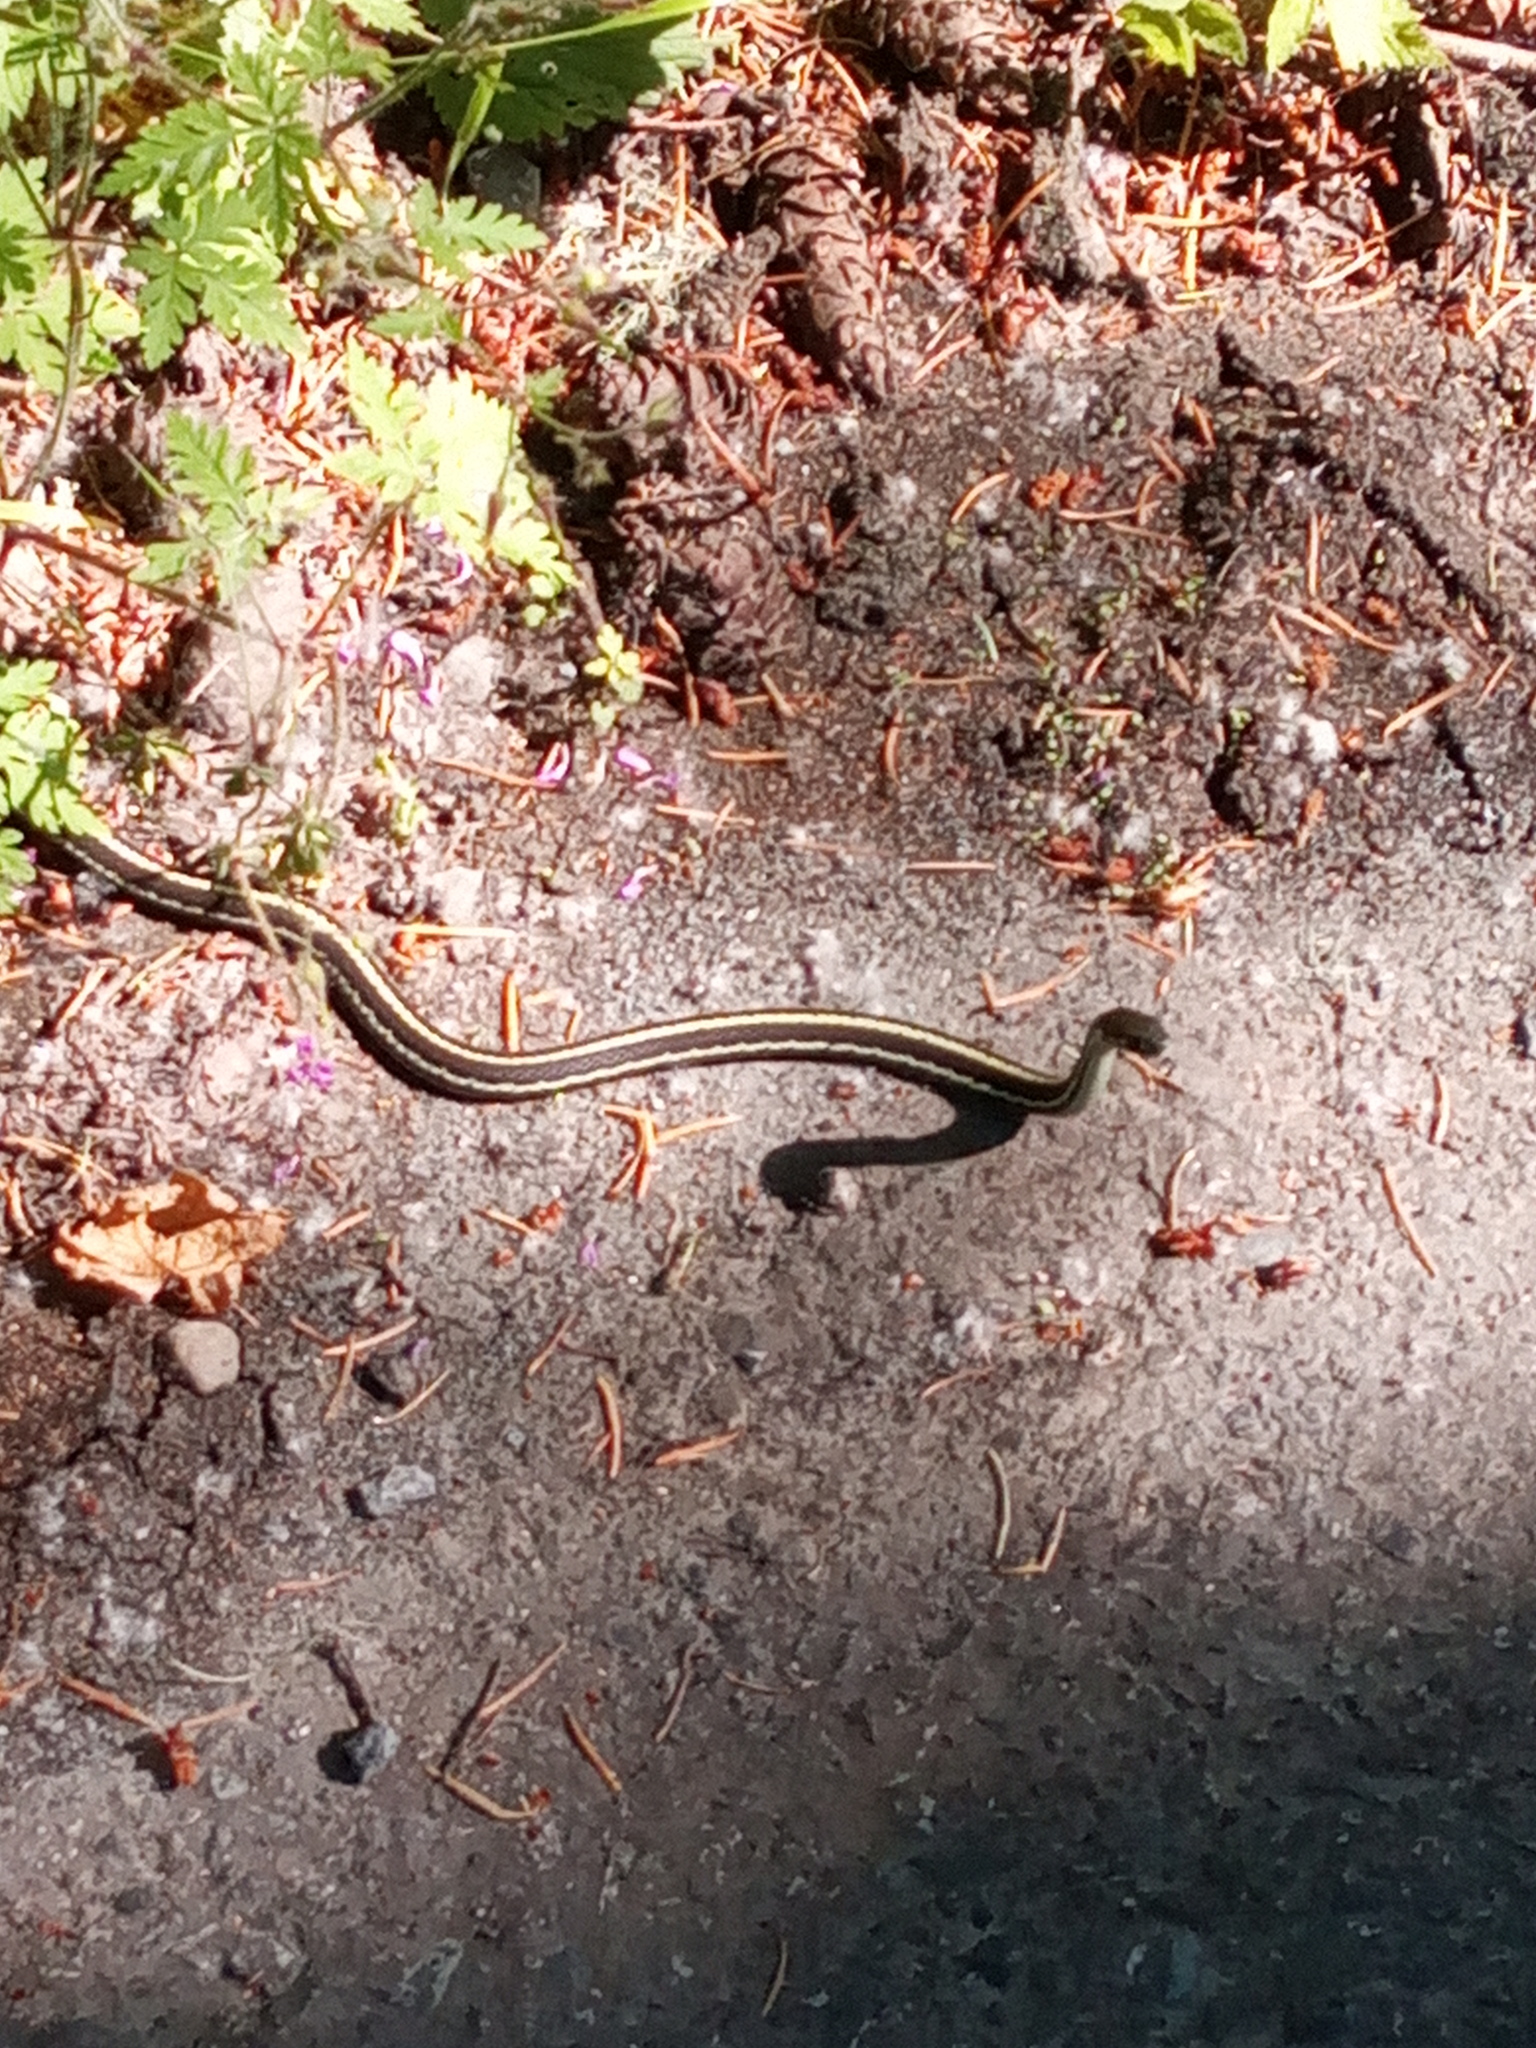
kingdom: Animalia
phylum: Chordata
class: Squamata
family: Colubridae
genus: Thamnophis
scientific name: Thamnophis
